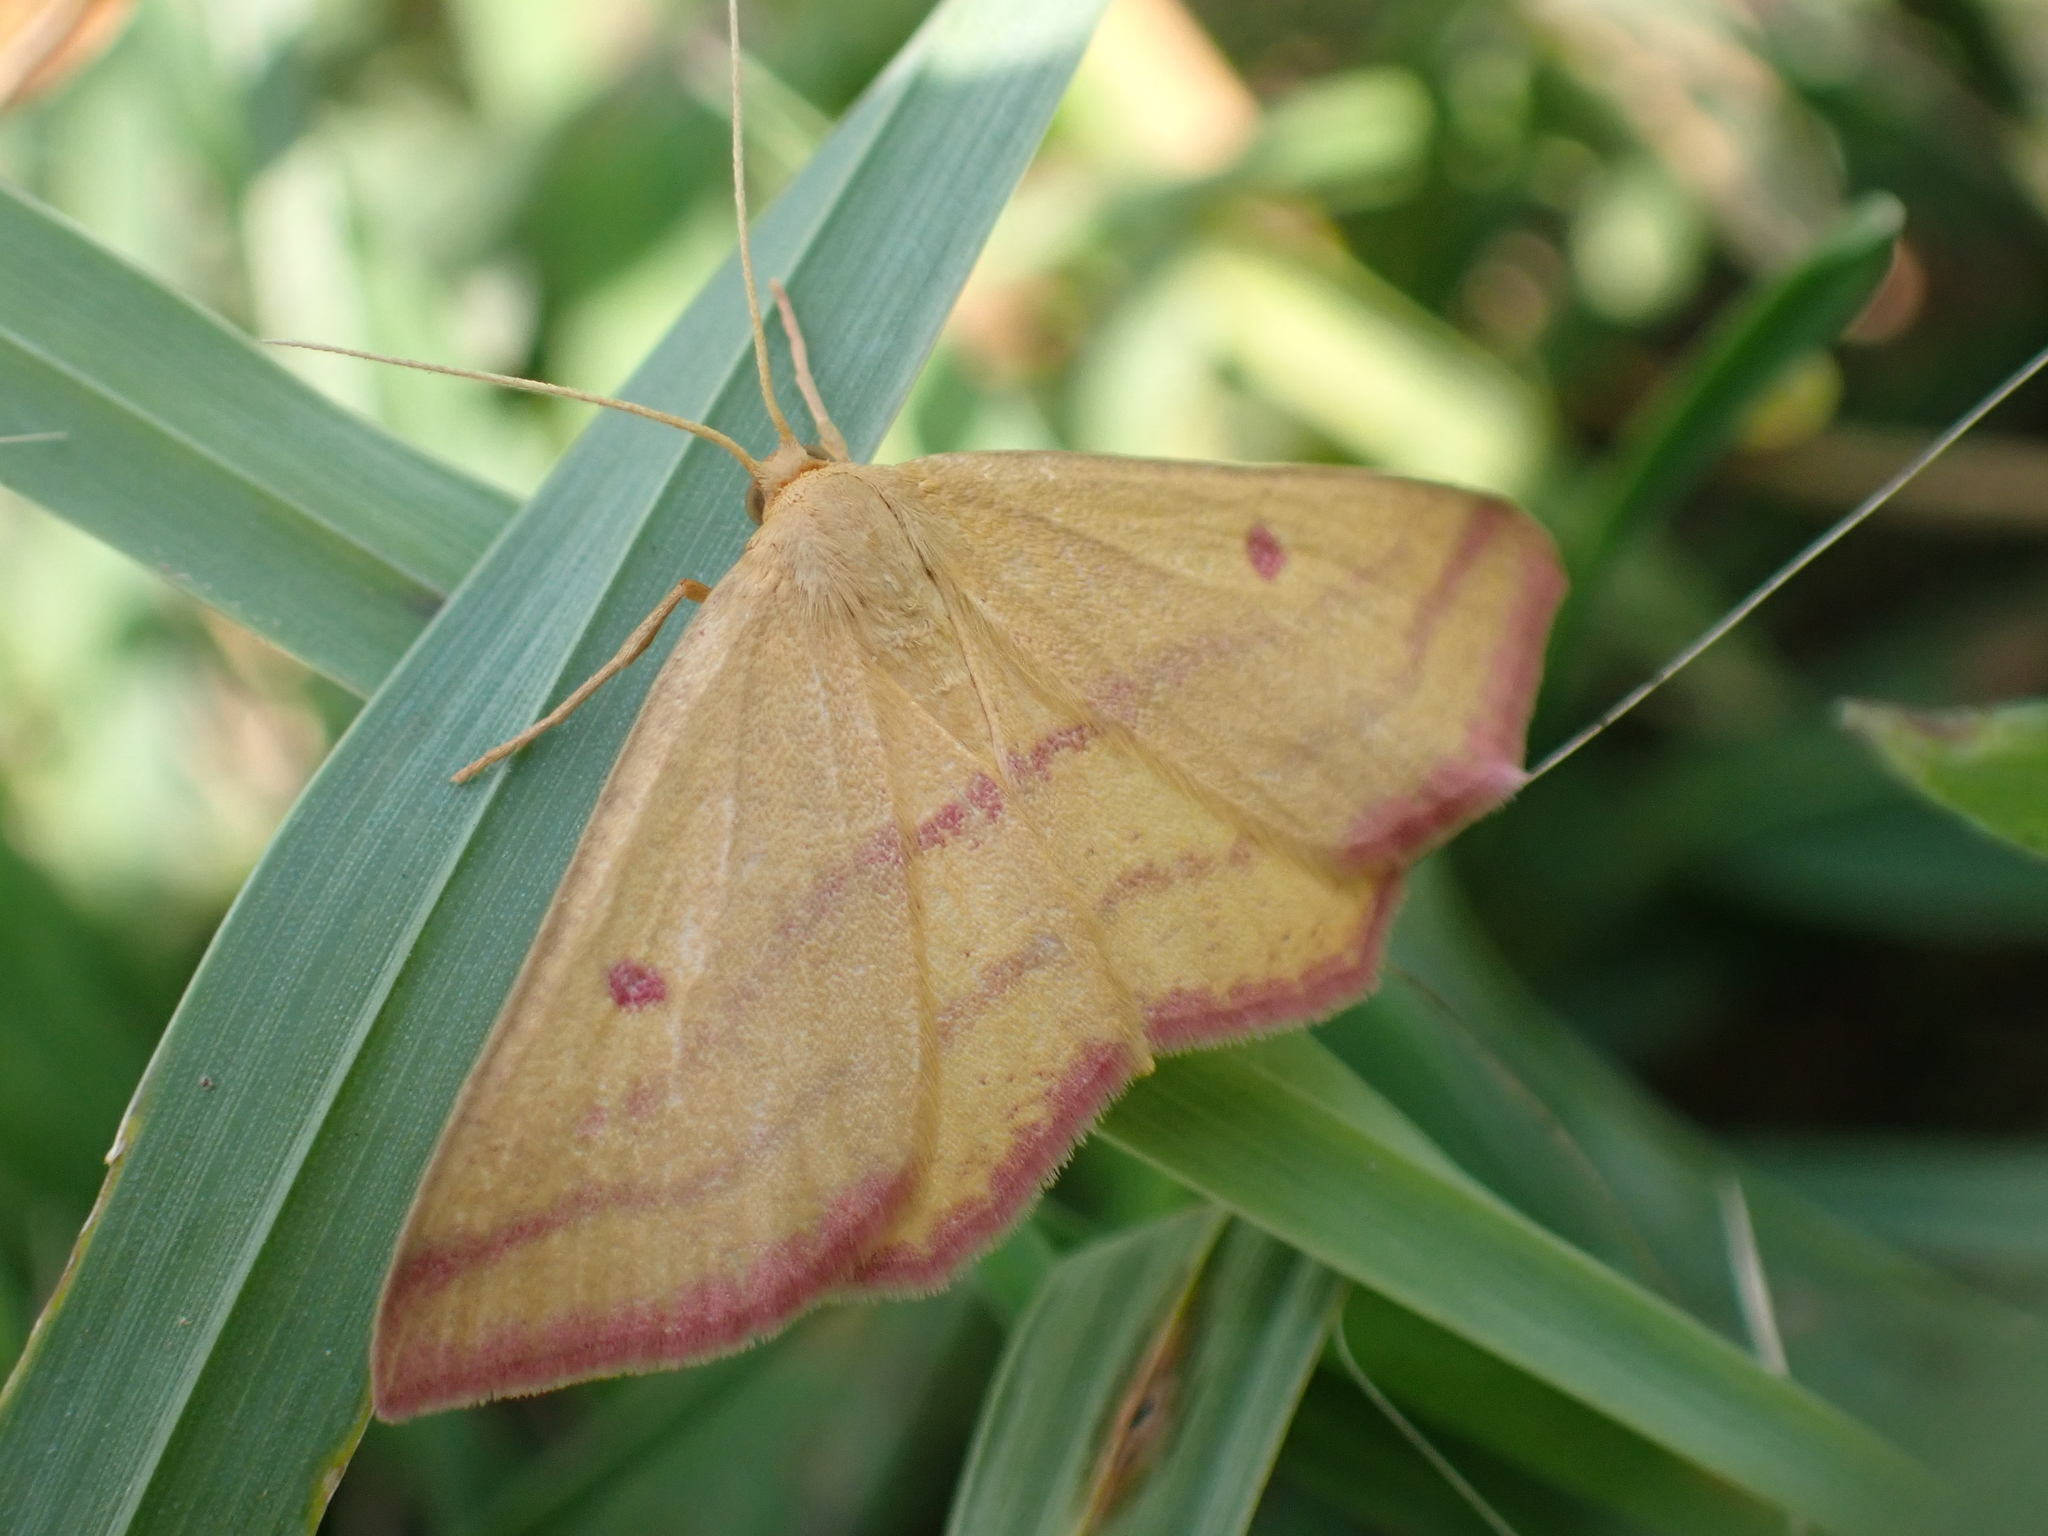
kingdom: Animalia
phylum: Arthropoda
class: Insecta
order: Lepidoptera
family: Geometridae
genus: Haematopis
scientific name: Haematopis grataria
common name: Chickweed geometer
